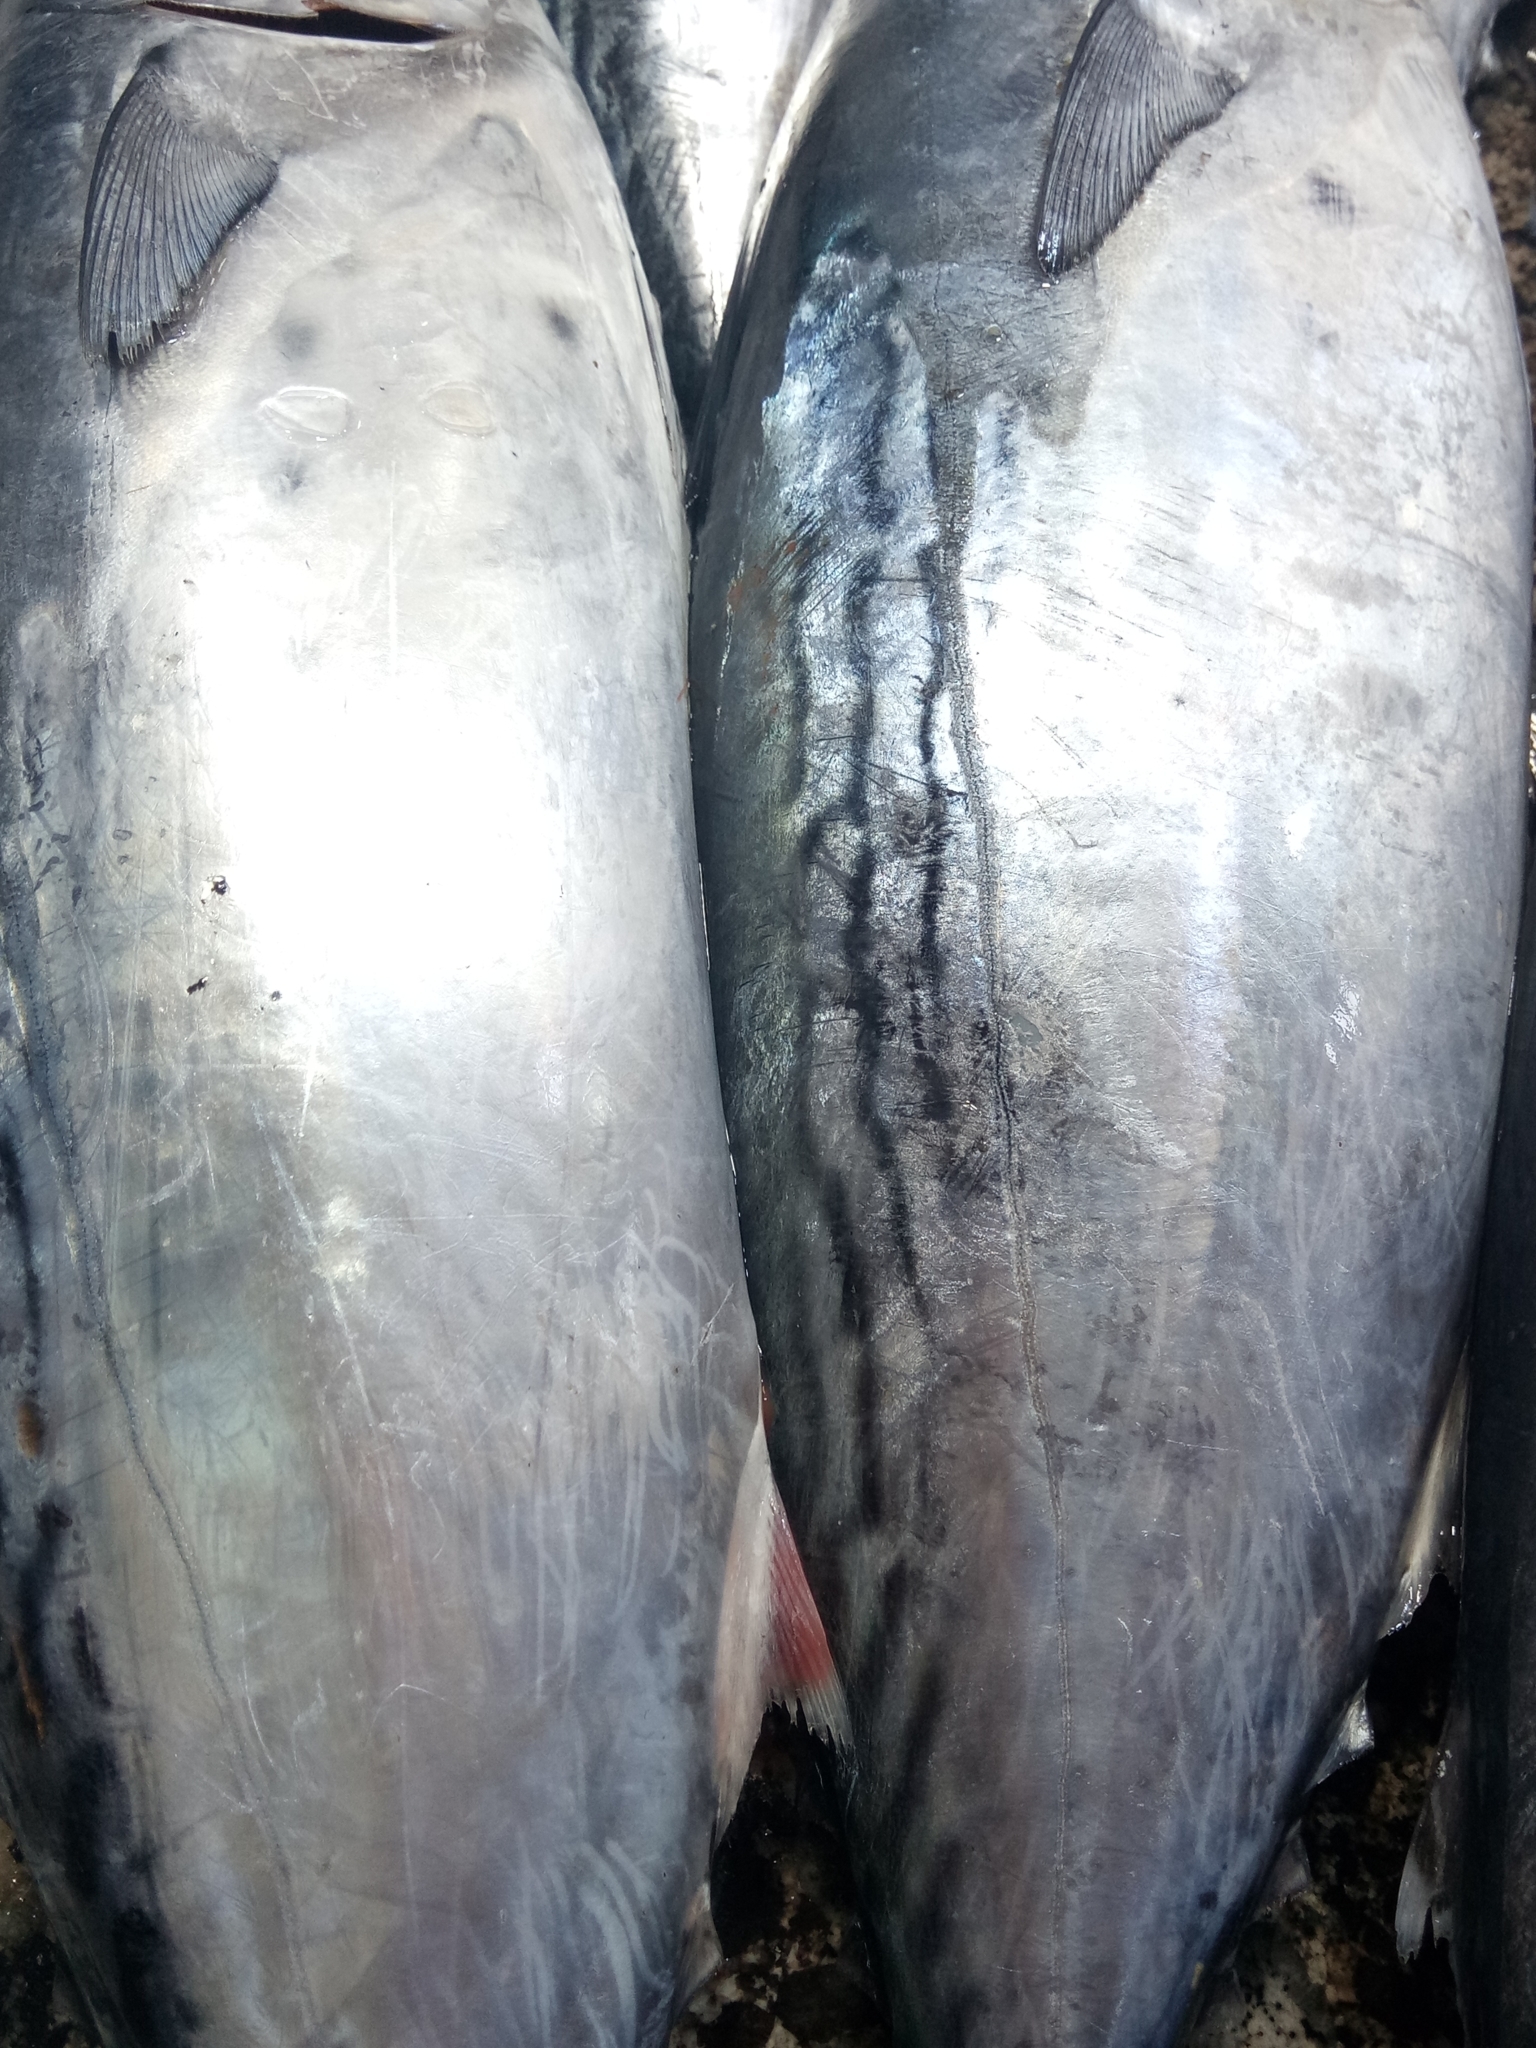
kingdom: Animalia
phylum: Chordata
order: Perciformes
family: Scombridae
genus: Euthynnus
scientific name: Euthynnus alletteratus
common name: Little tunny
